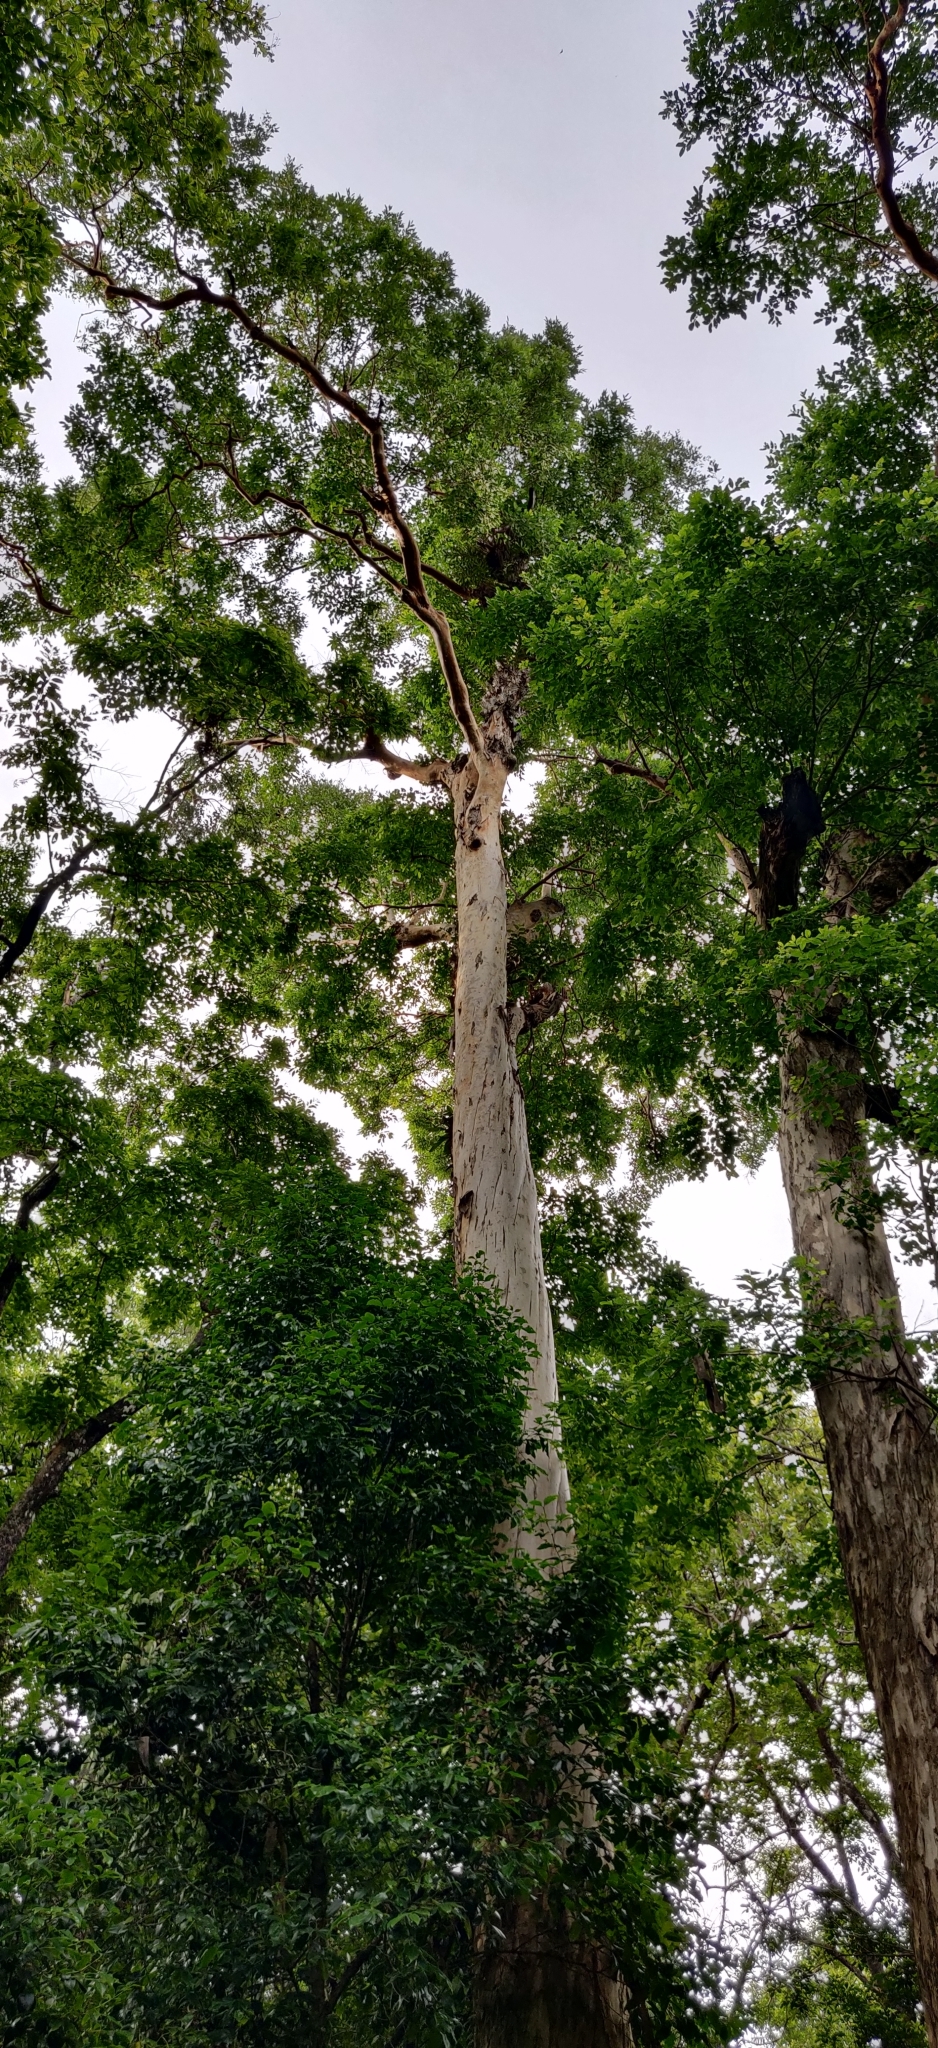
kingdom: Plantae
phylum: Tracheophyta
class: Magnoliopsida
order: Myrtales
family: Lythraceae
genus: Lagerstroemia
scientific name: Lagerstroemia microcarpa
